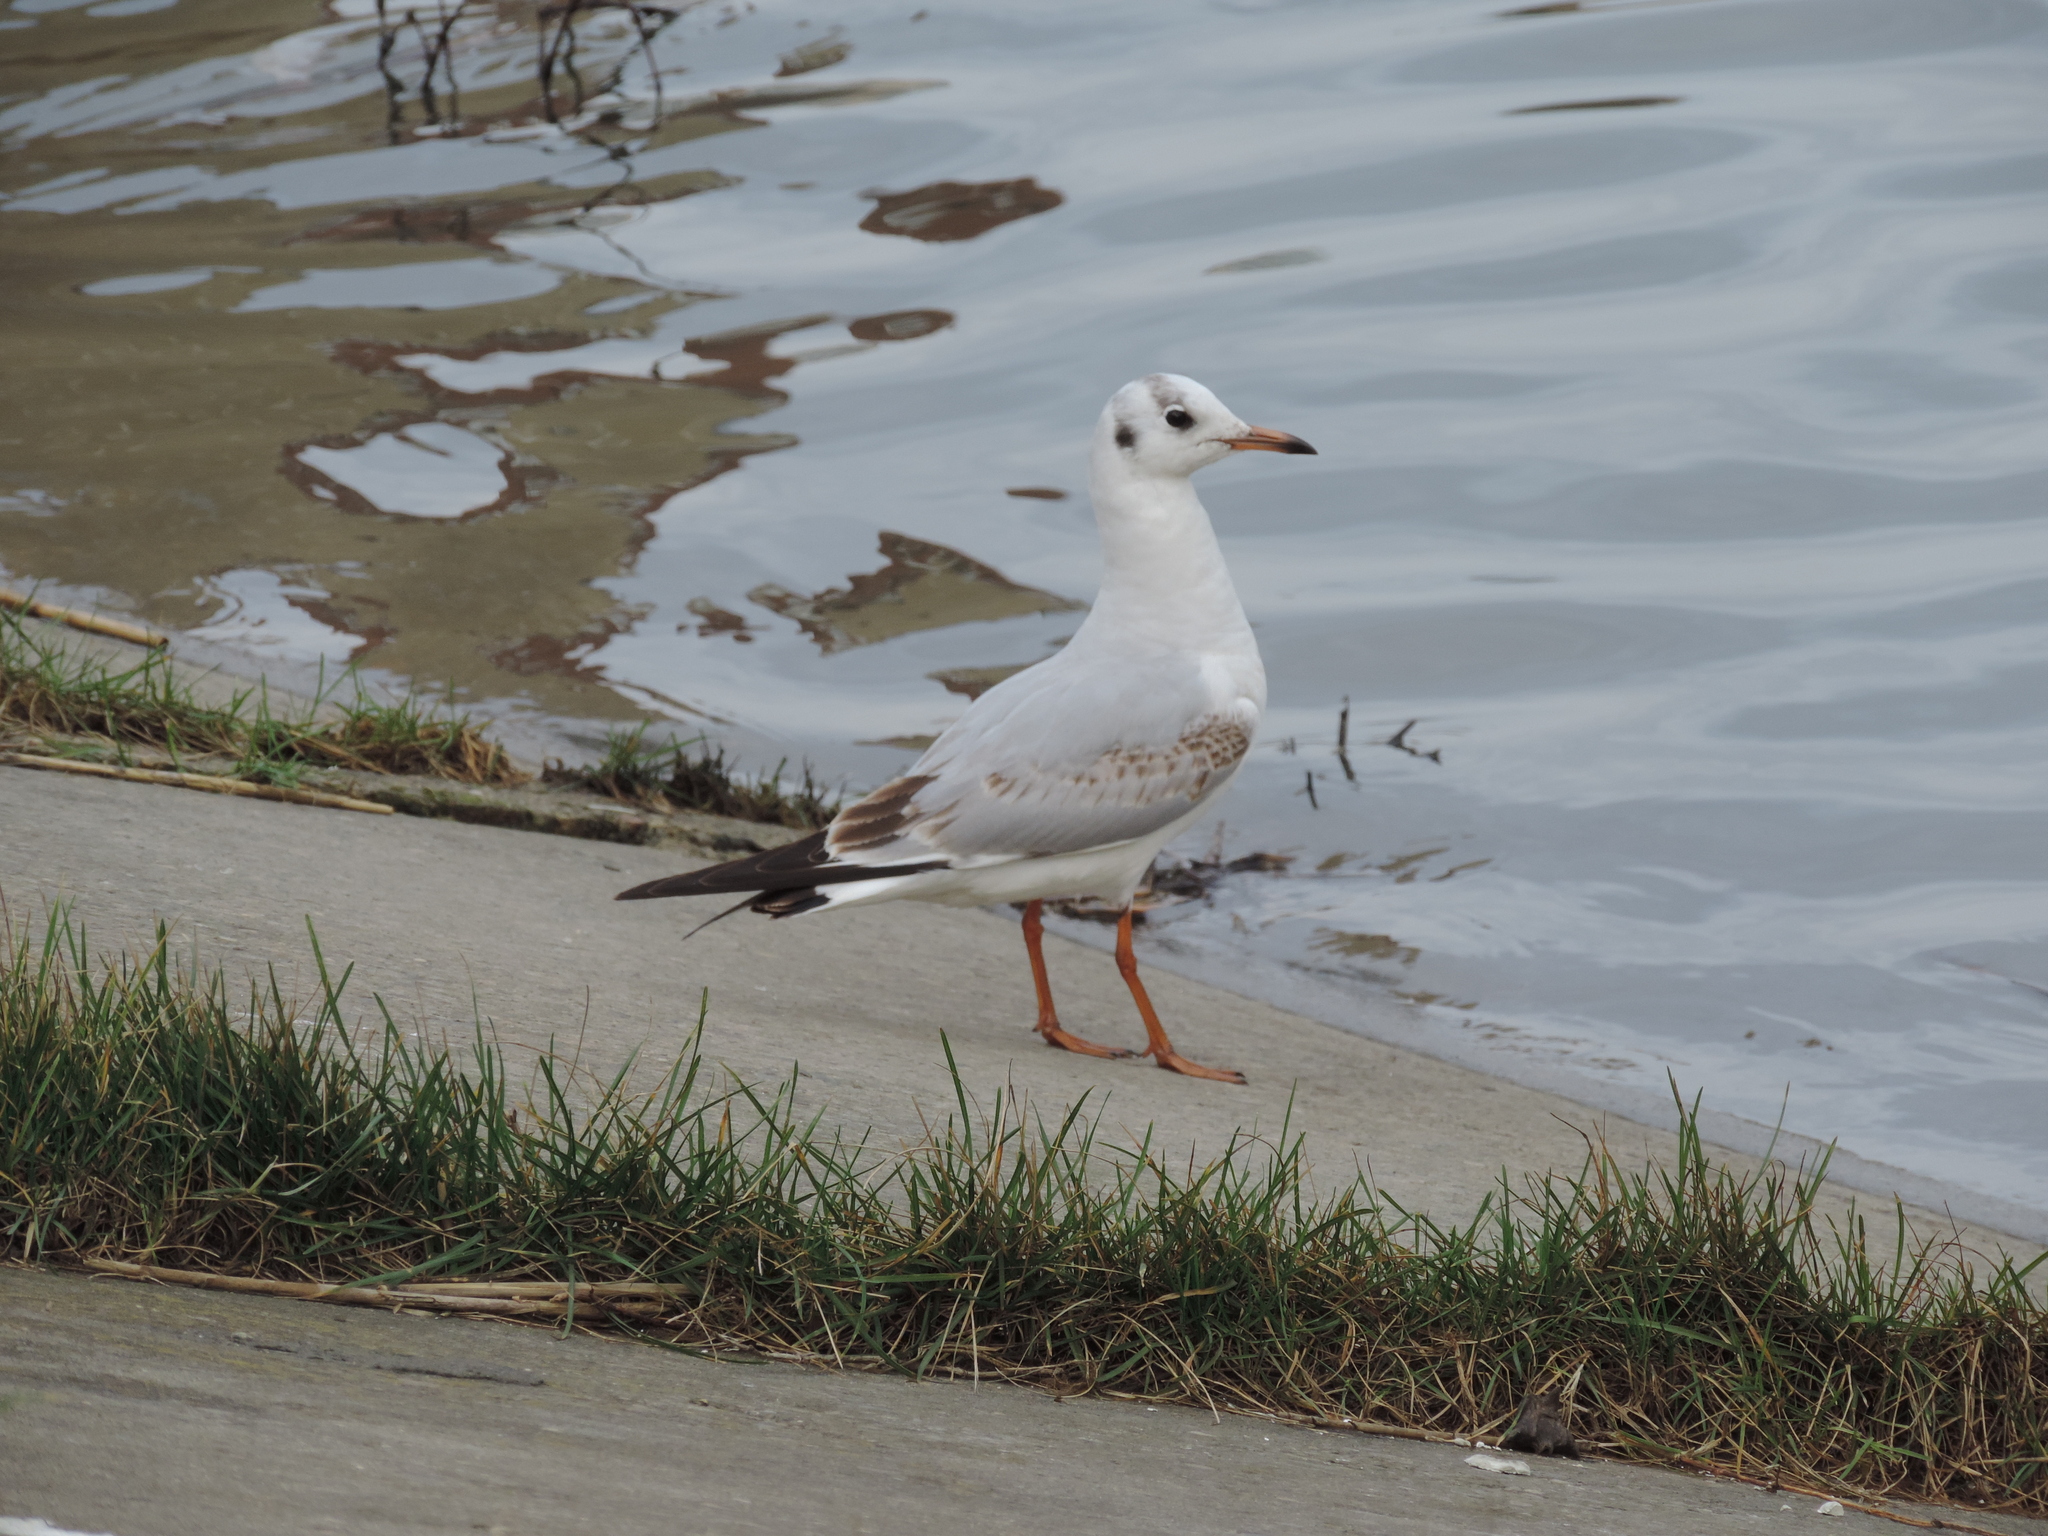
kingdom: Animalia
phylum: Chordata
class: Aves
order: Charadriiformes
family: Laridae
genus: Chroicocephalus
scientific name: Chroicocephalus ridibundus
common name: Black-headed gull
